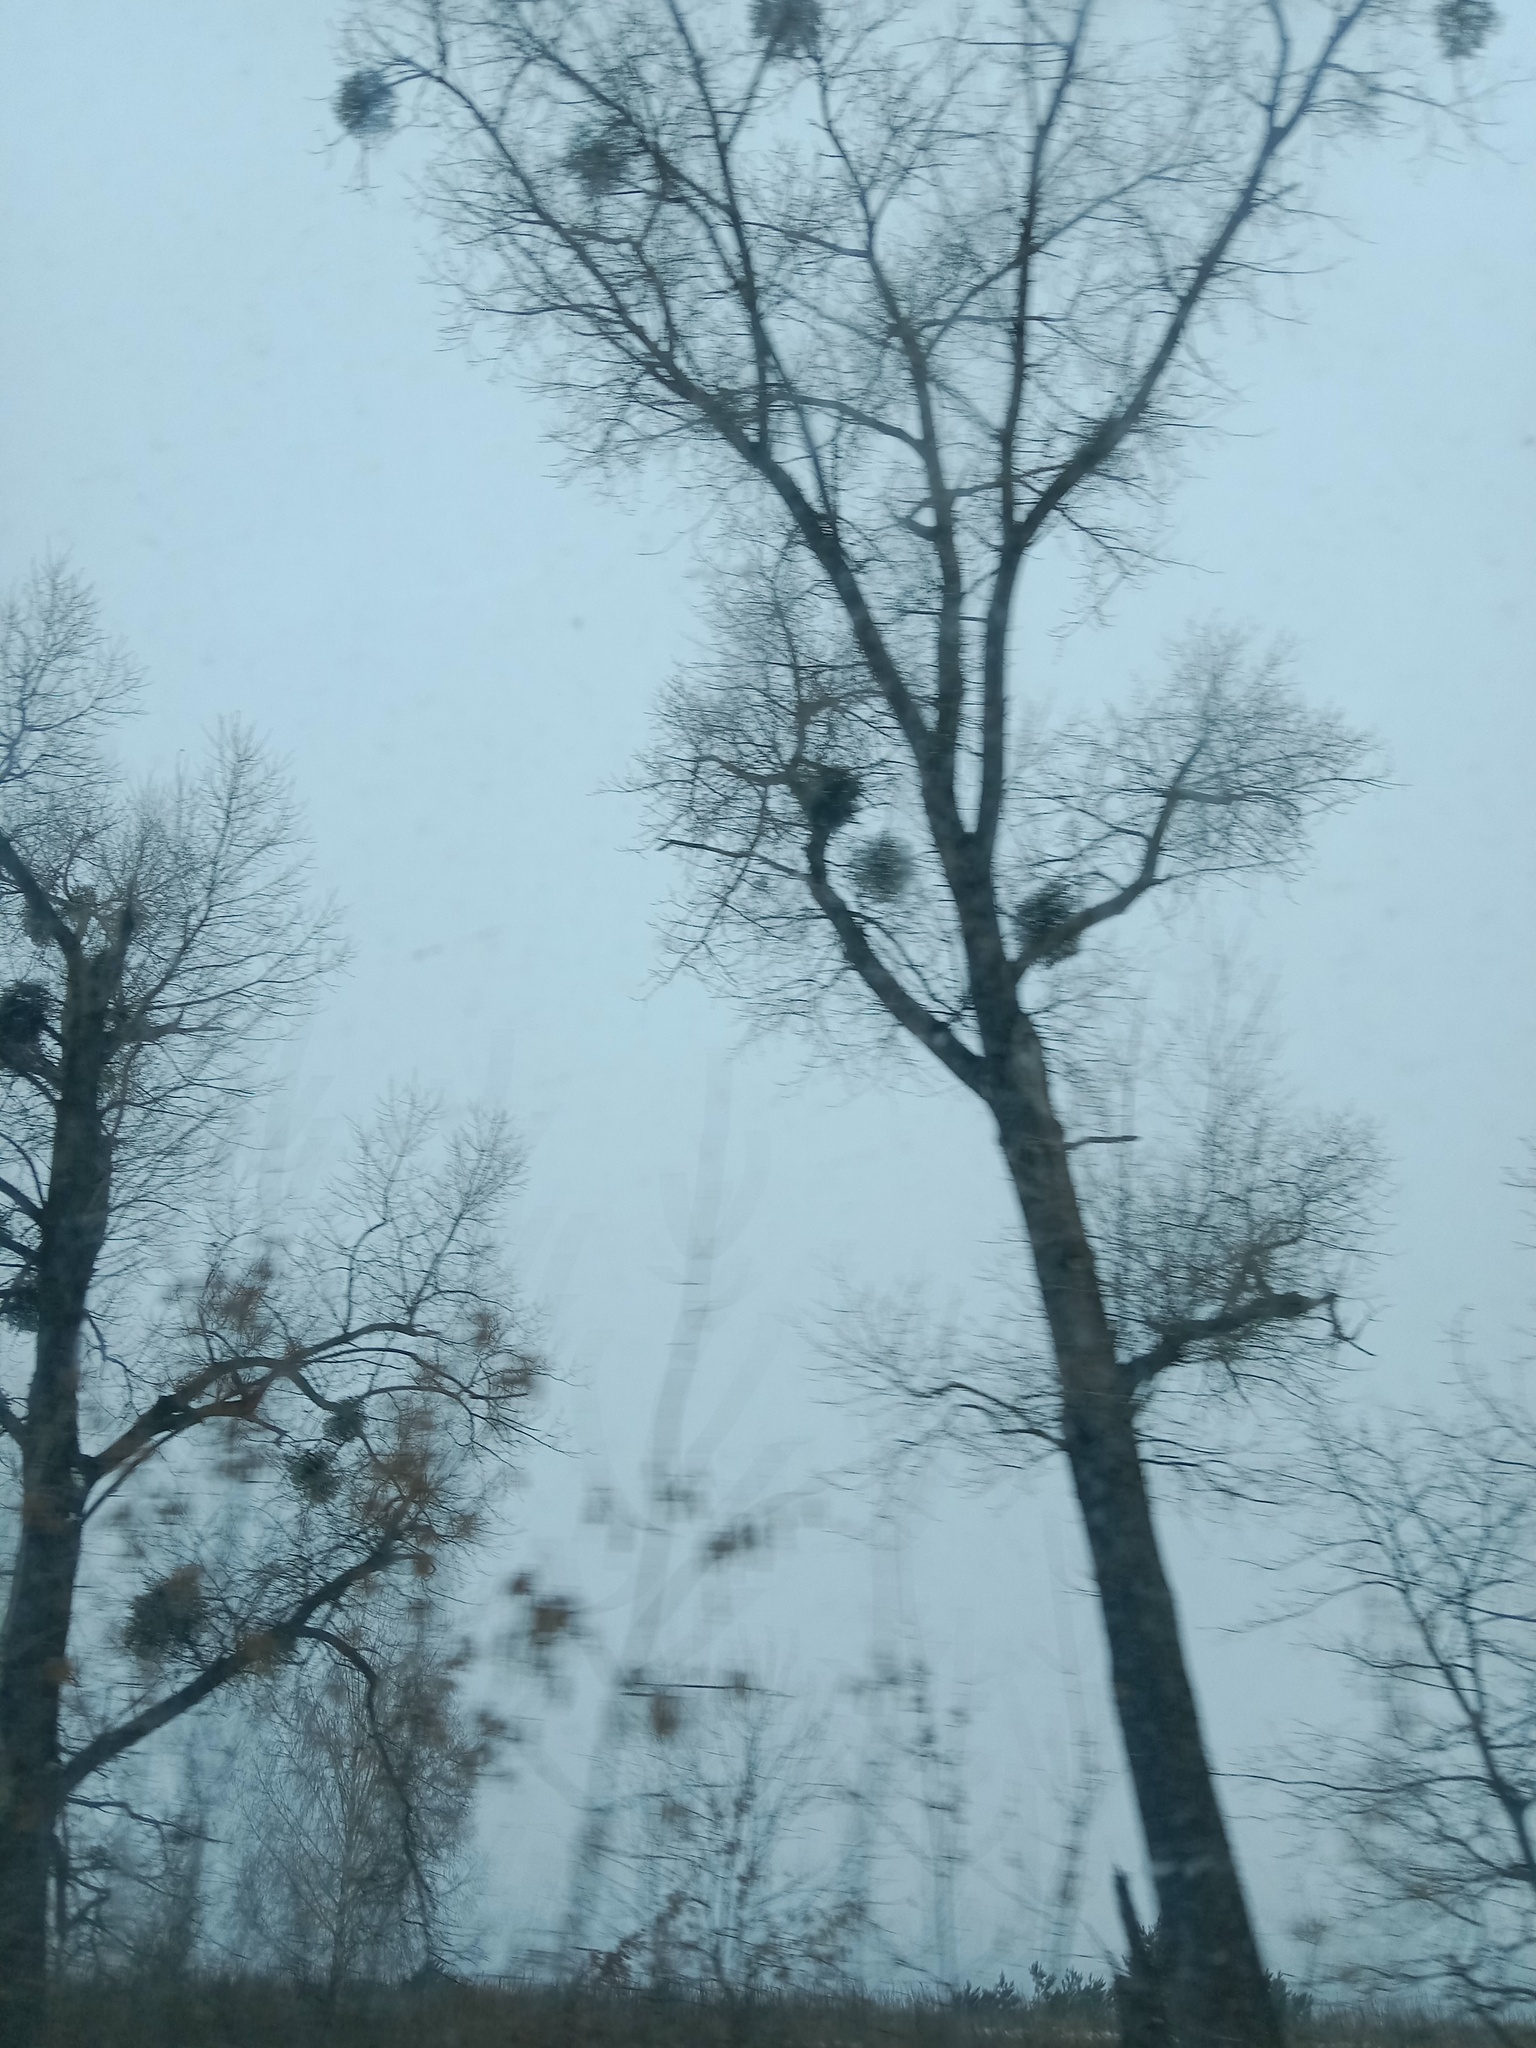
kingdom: Plantae
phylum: Tracheophyta
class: Magnoliopsida
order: Santalales
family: Viscaceae
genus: Viscum
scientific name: Viscum album
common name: Mistletoe
